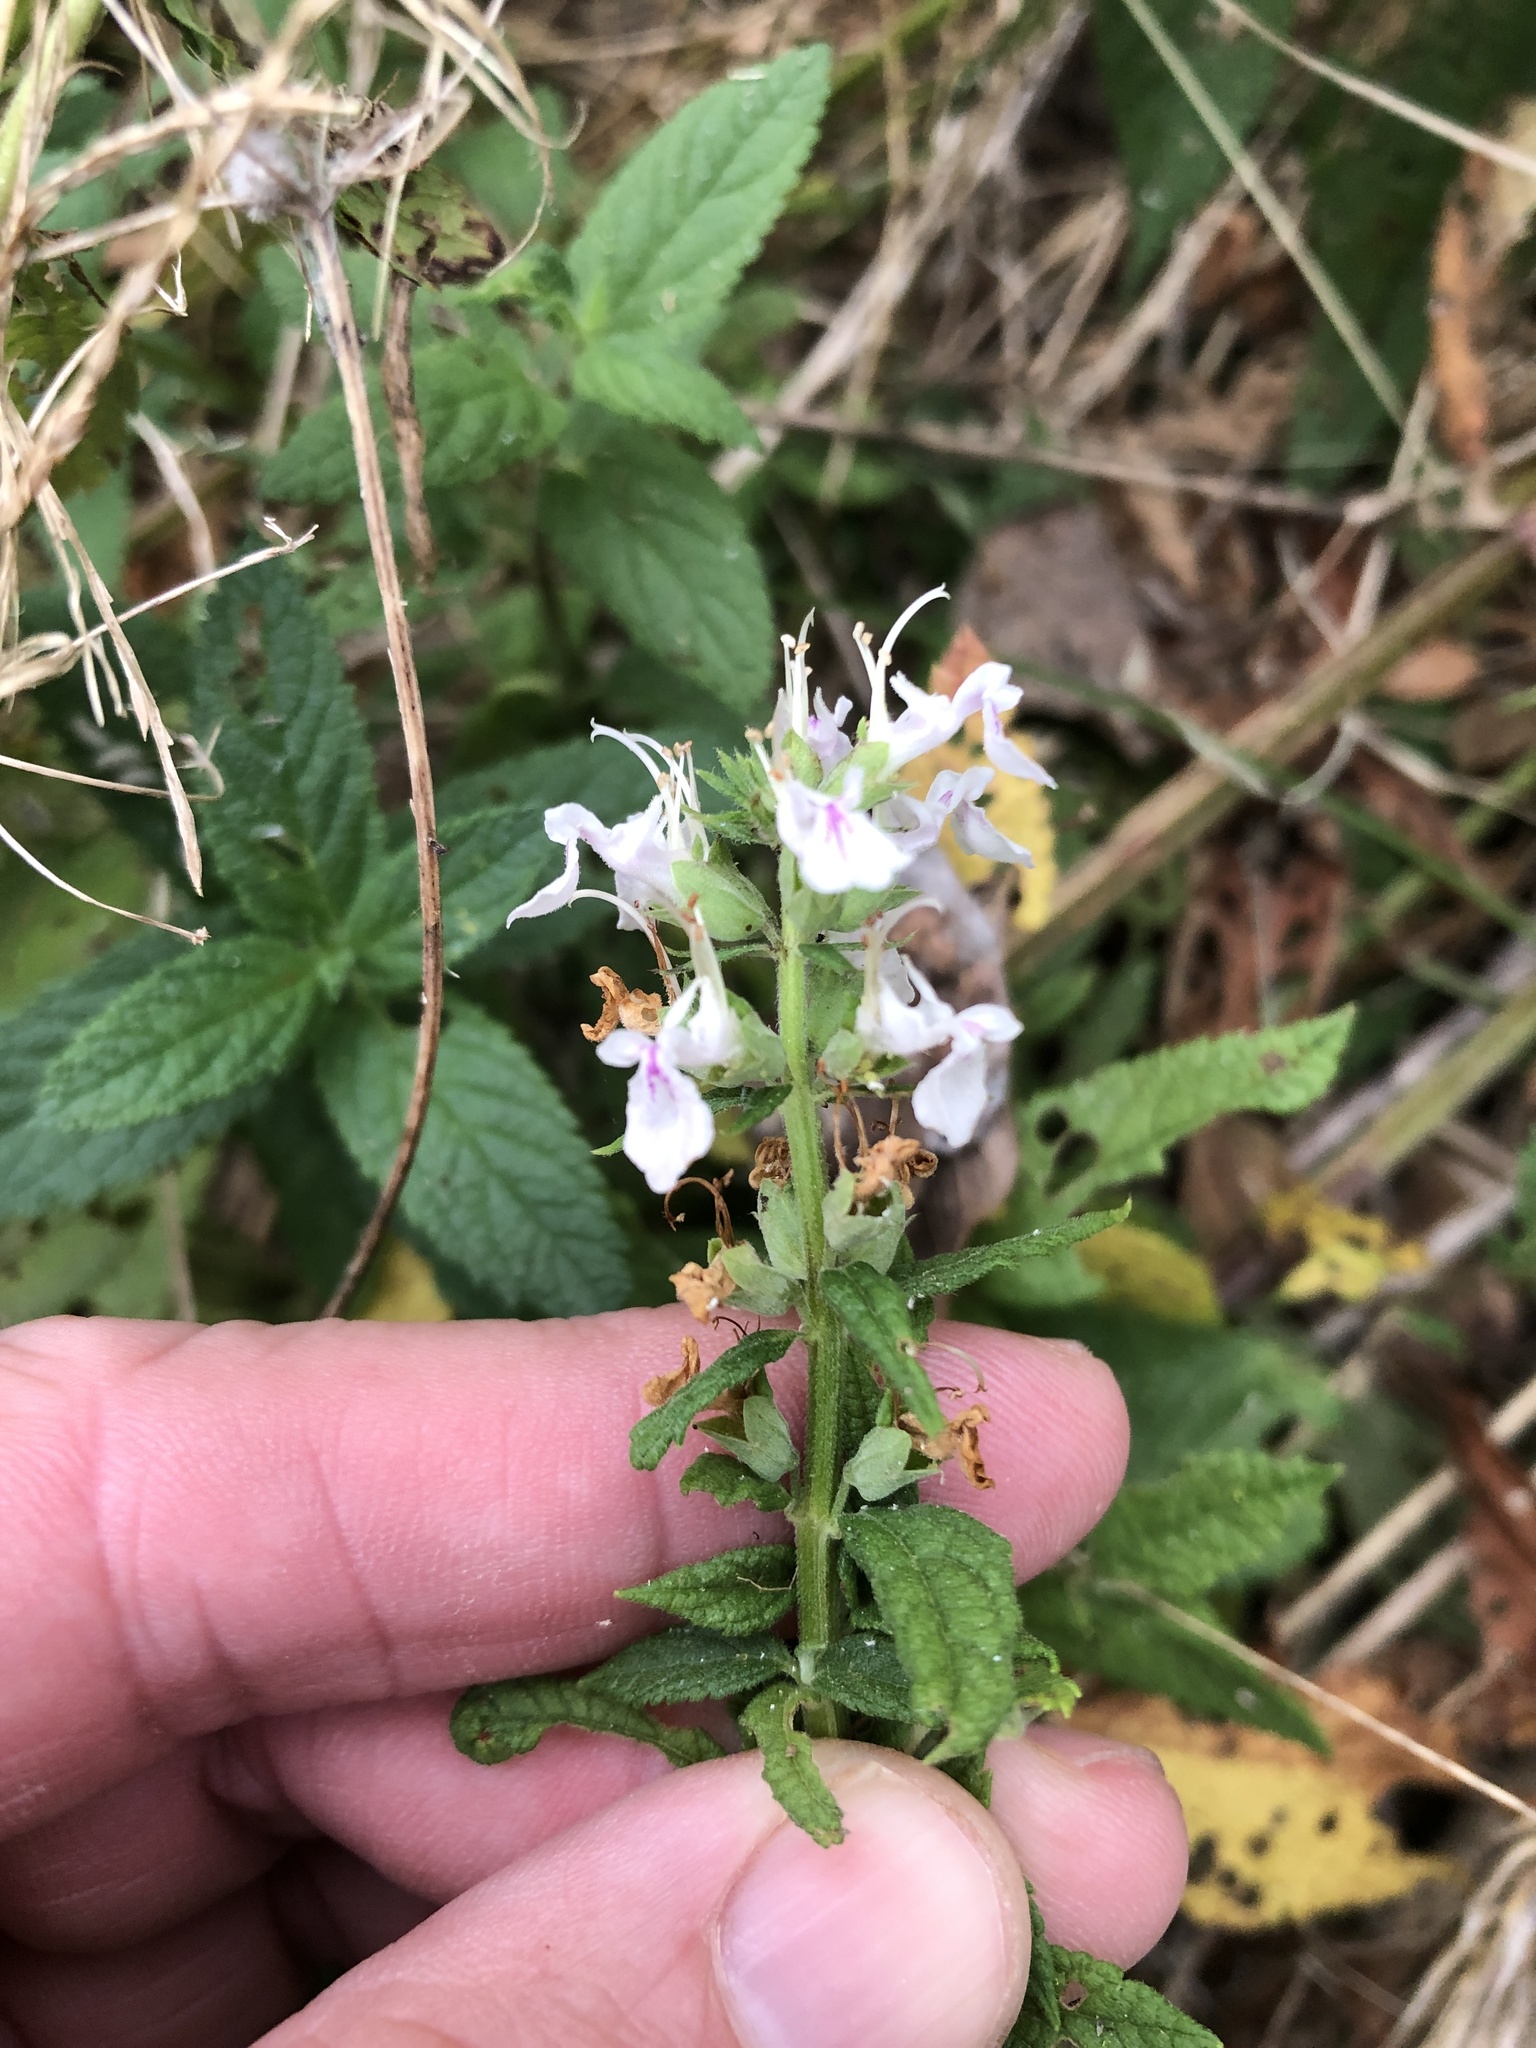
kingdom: Plantae
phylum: Tracheophyta
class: Magnoliopsida
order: Lamiales
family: Lamiaceae
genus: Teucrium
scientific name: Teucrium canadense
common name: American germander
